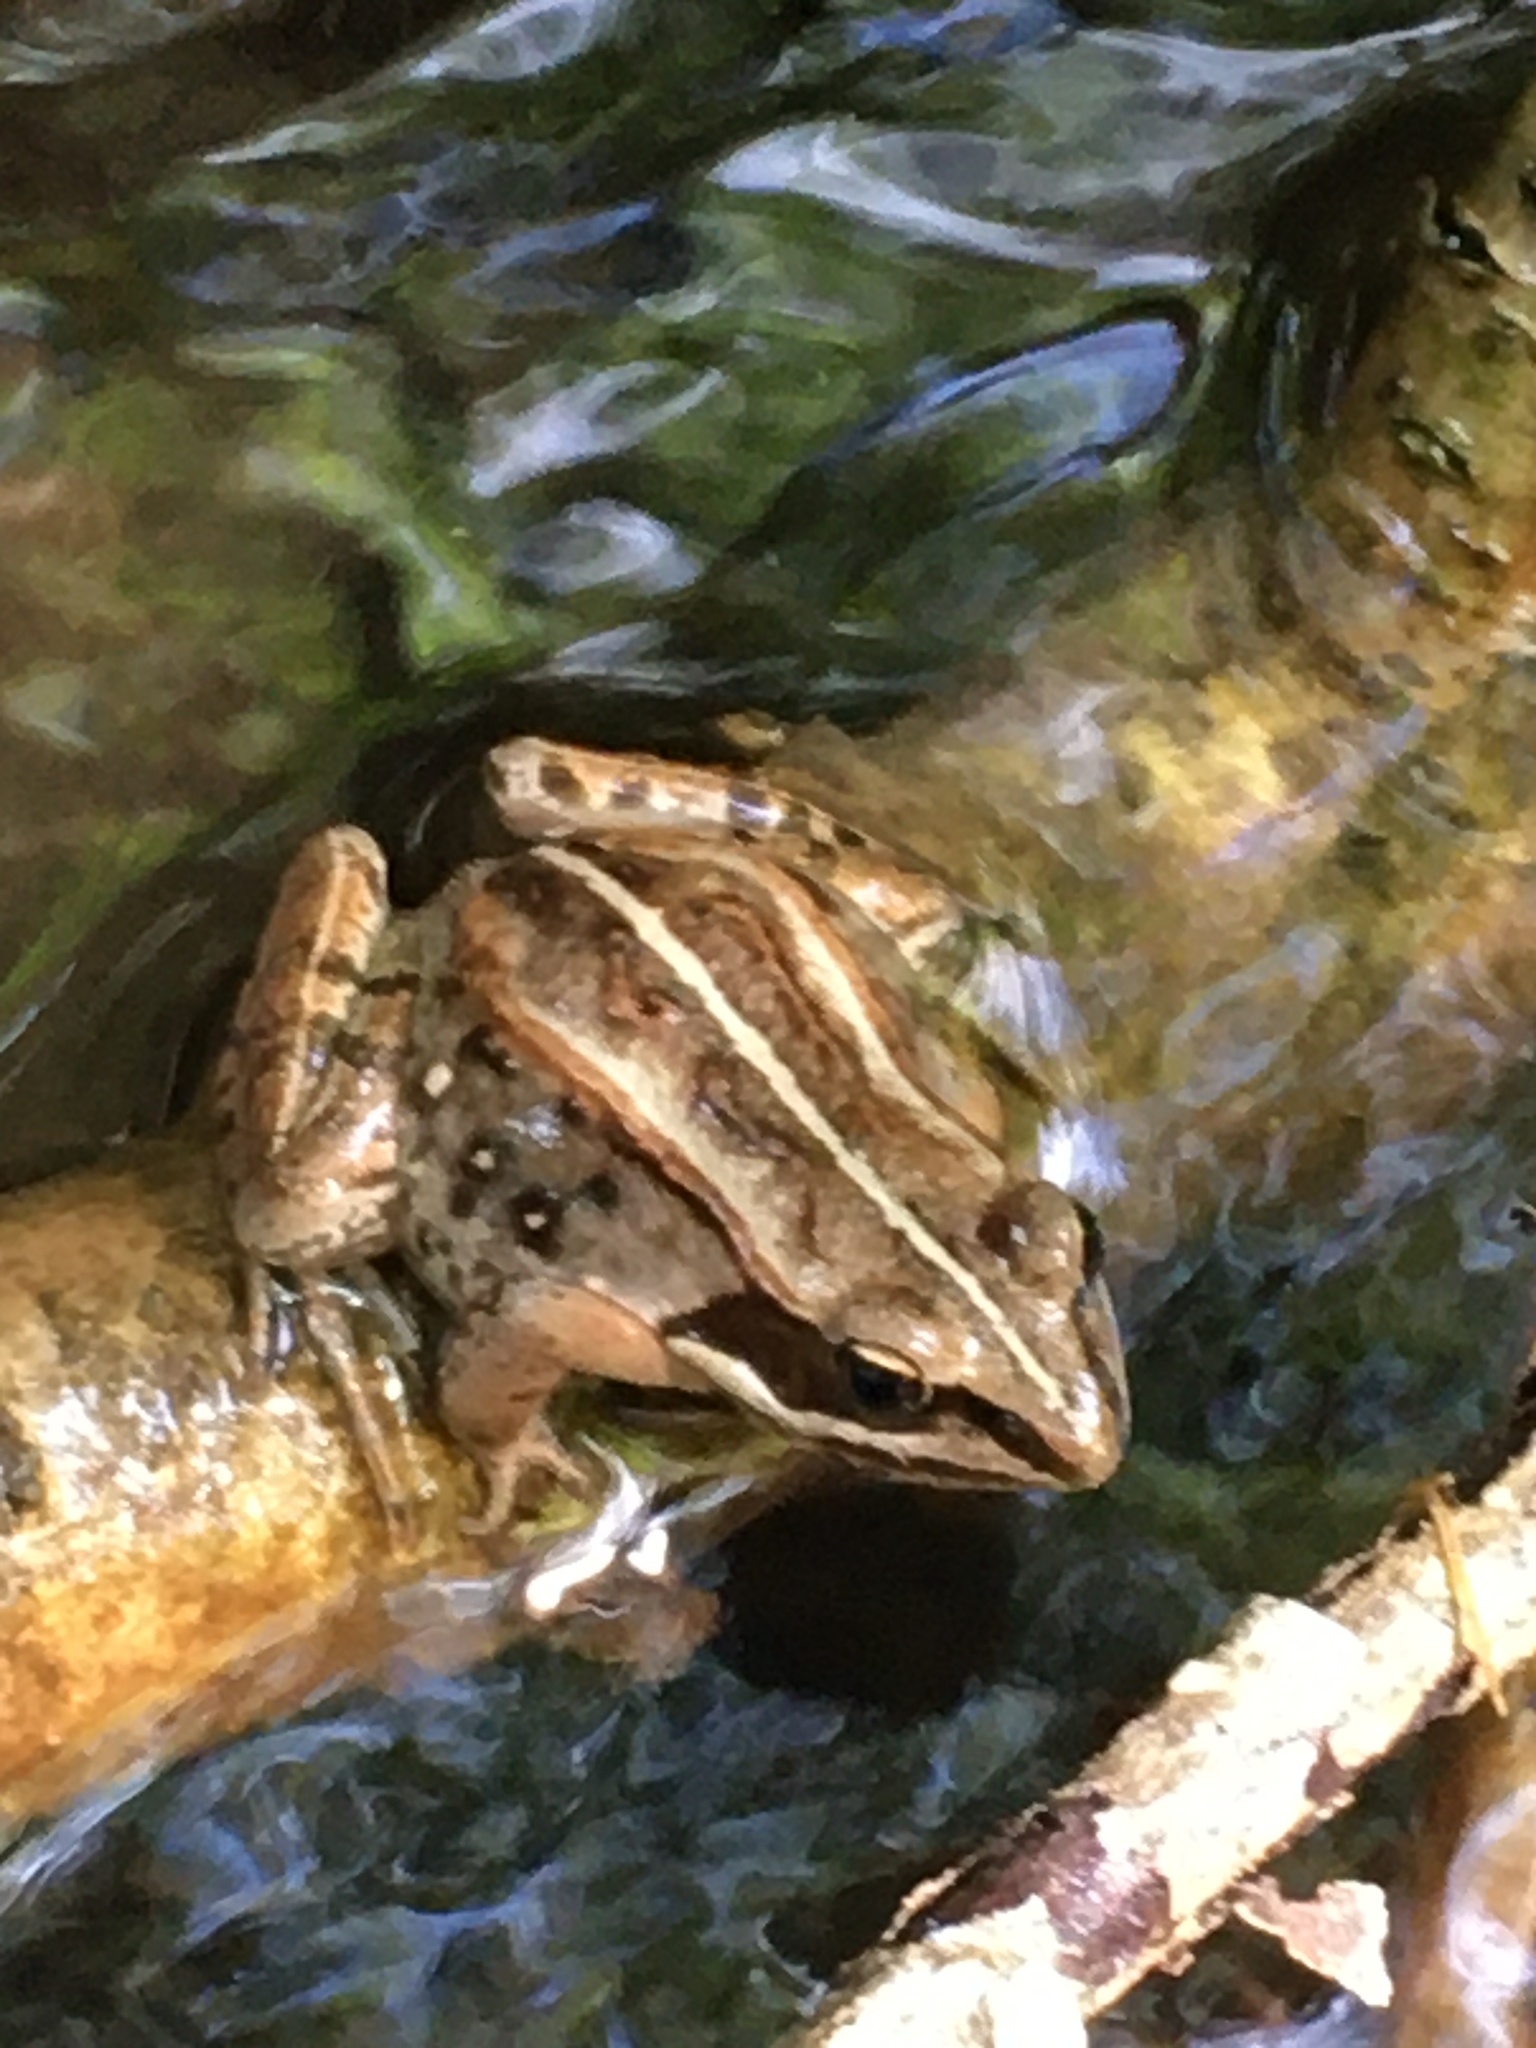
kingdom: Animalia
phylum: Chordata
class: Amphibia
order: Anura
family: Ranidae
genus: Lithobates
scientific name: Lithobates sylvaticus
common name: Wood frog
